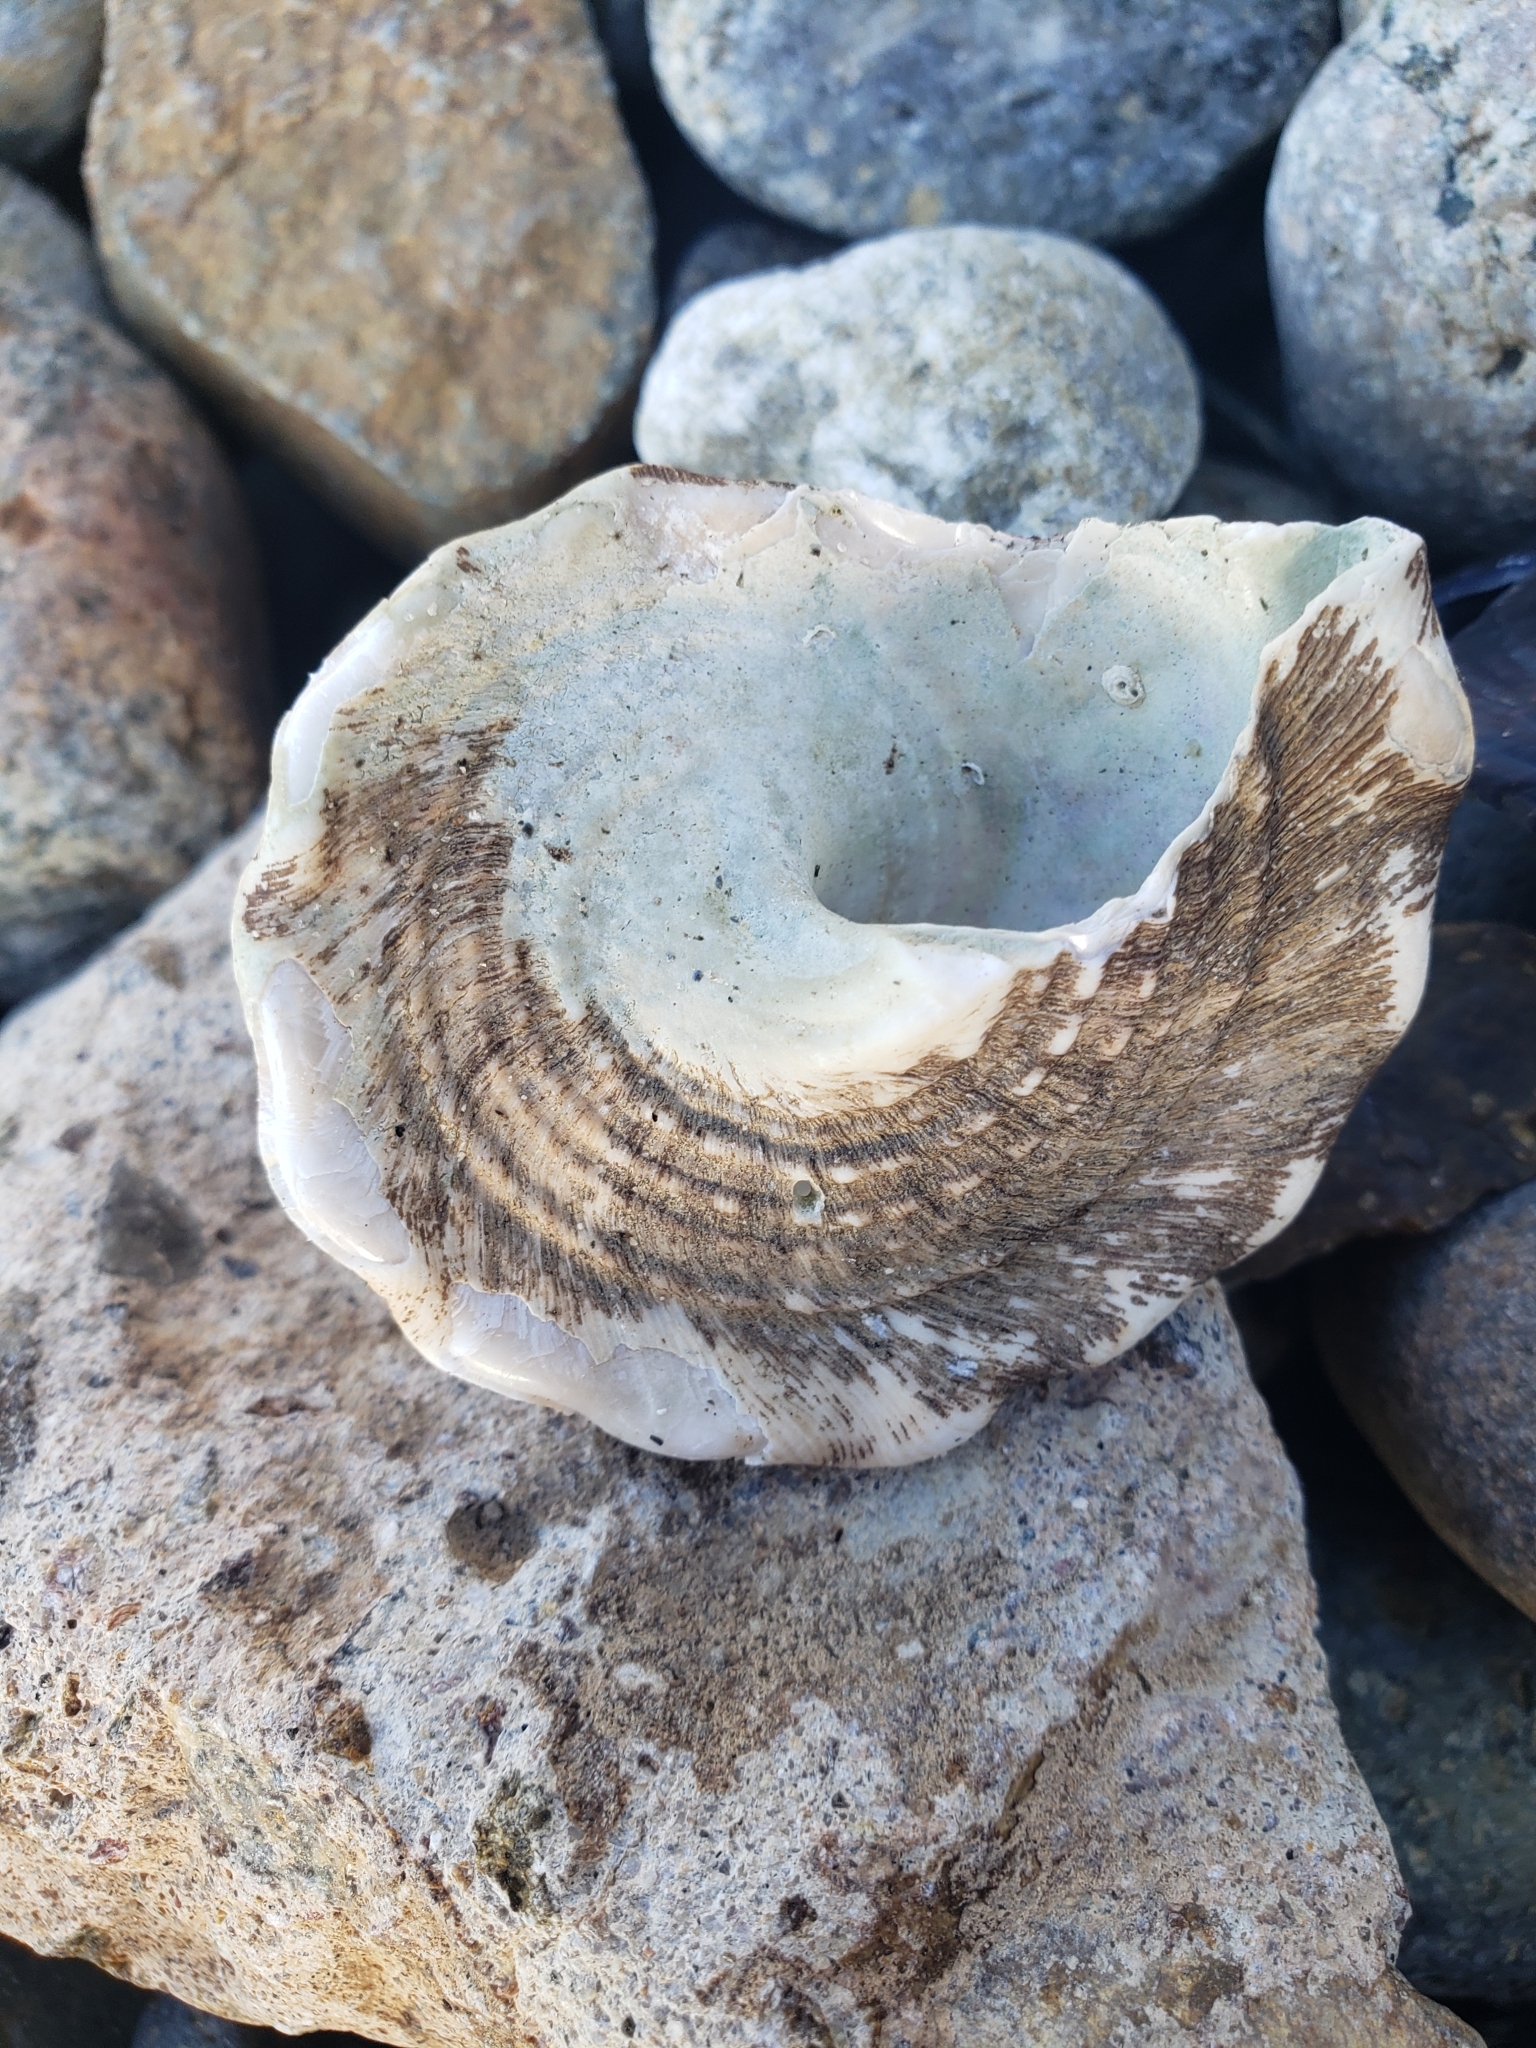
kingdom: Animalia
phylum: Mollusca
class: Gastropoda
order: Trochida
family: Turbinidae
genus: Megastraea
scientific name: Megastraea undosa
